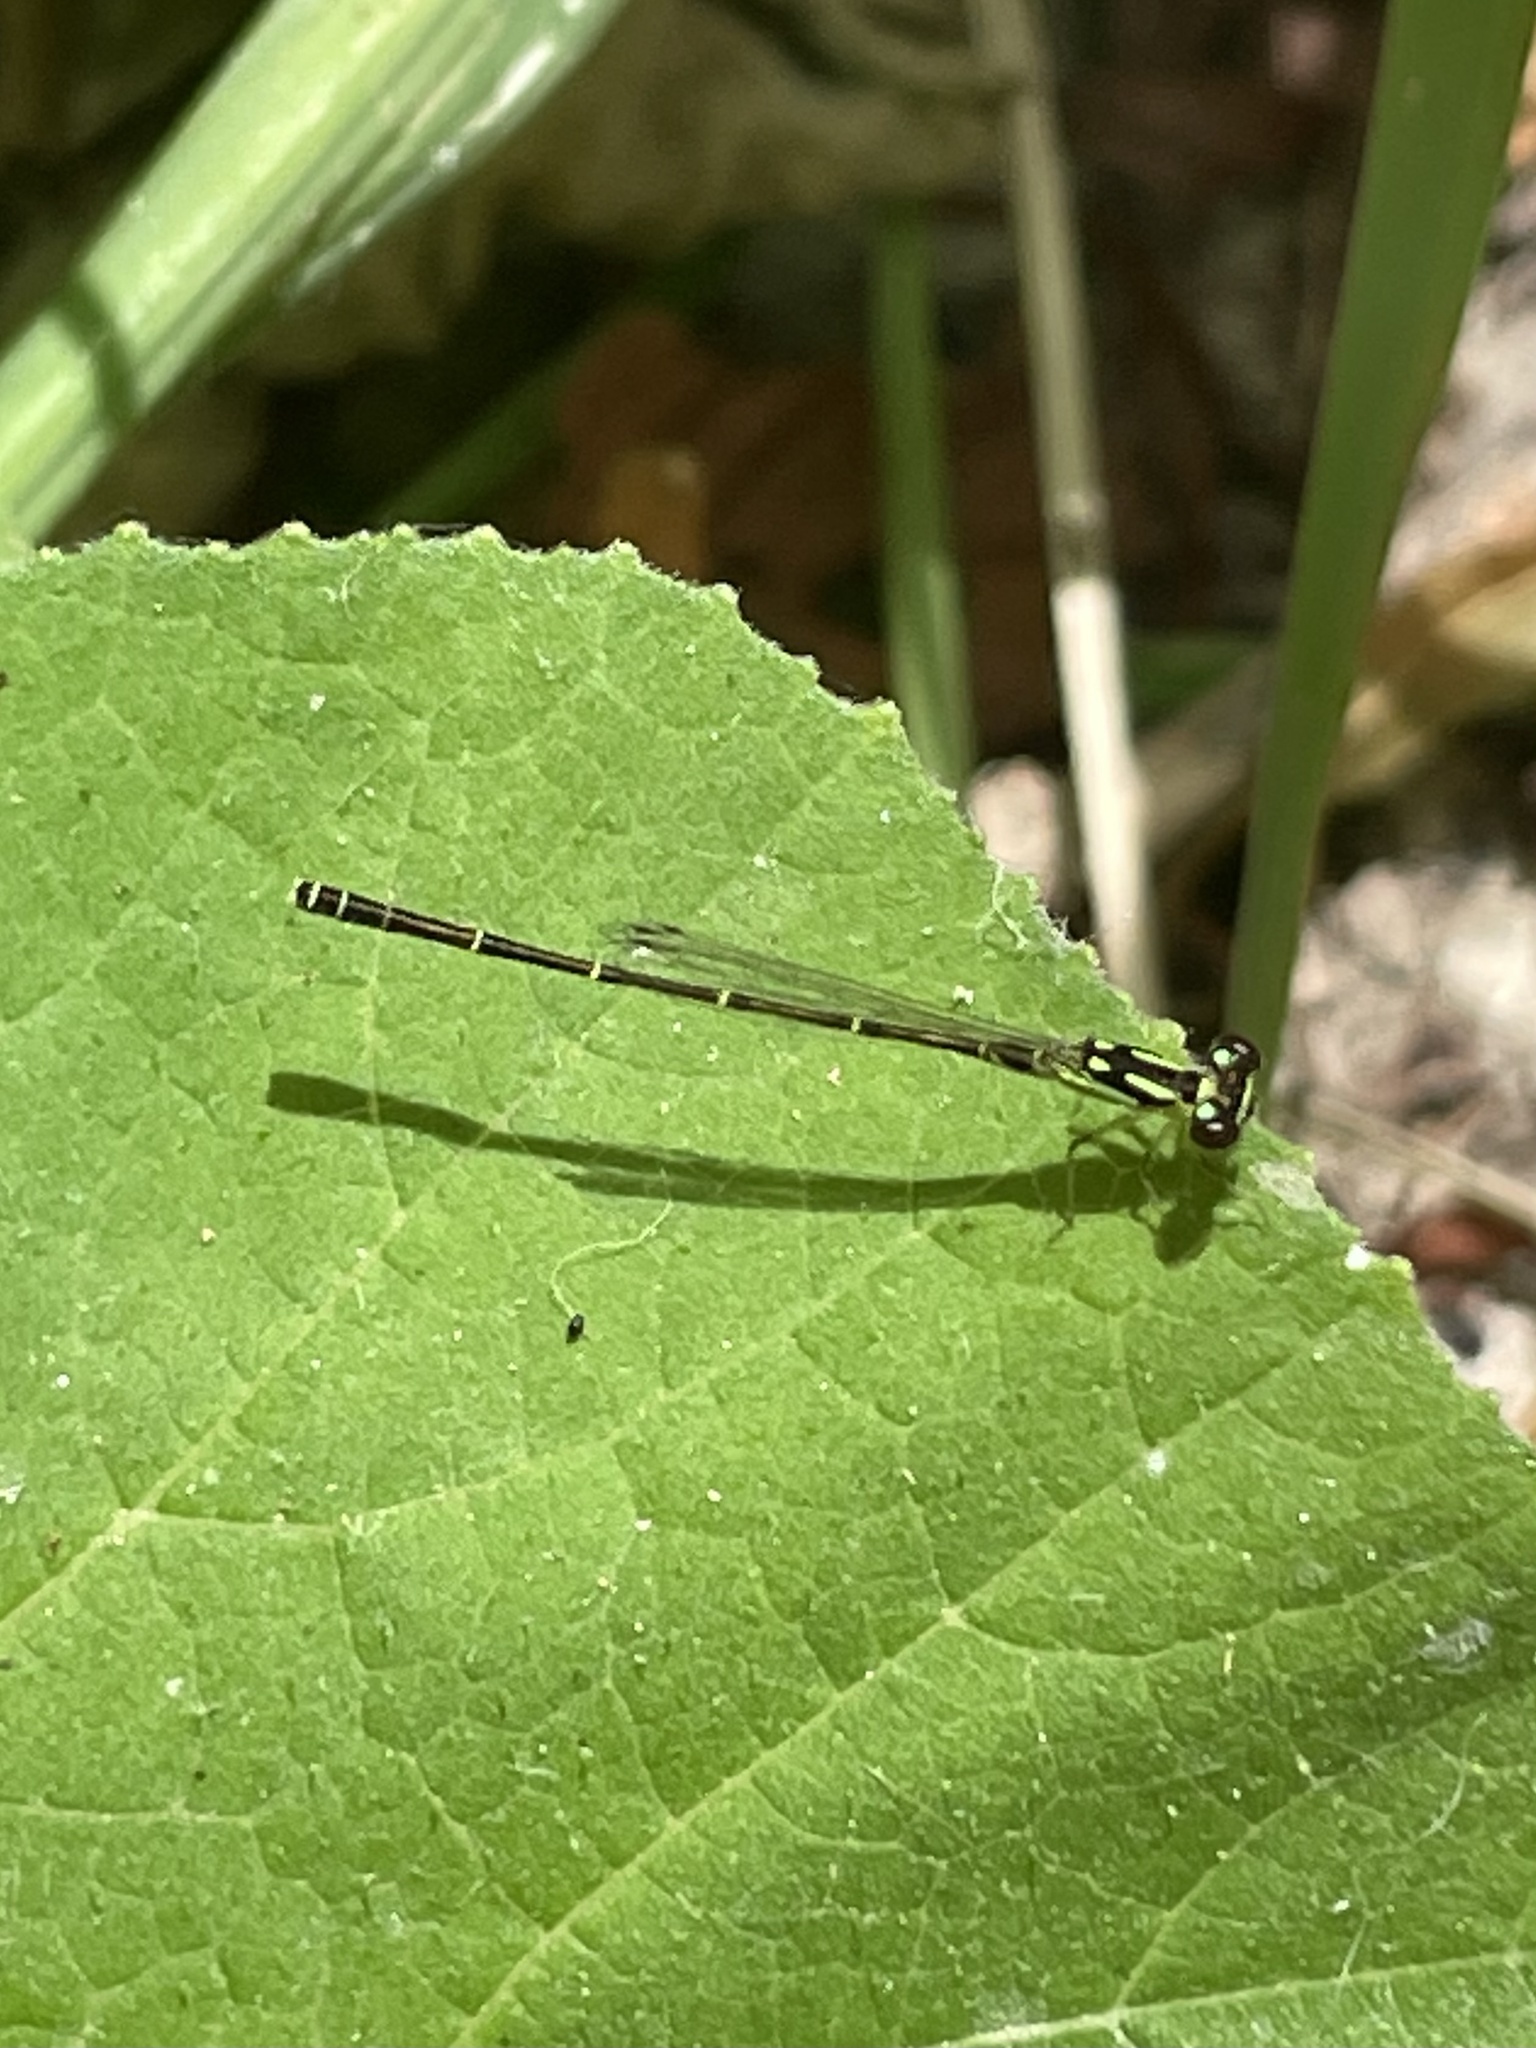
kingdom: Animalia
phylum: Arthropoda
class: Insecta
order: Odonata
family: Coenagrionidae
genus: Ischnura
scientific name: Ischnura posita
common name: Fragile forktail
